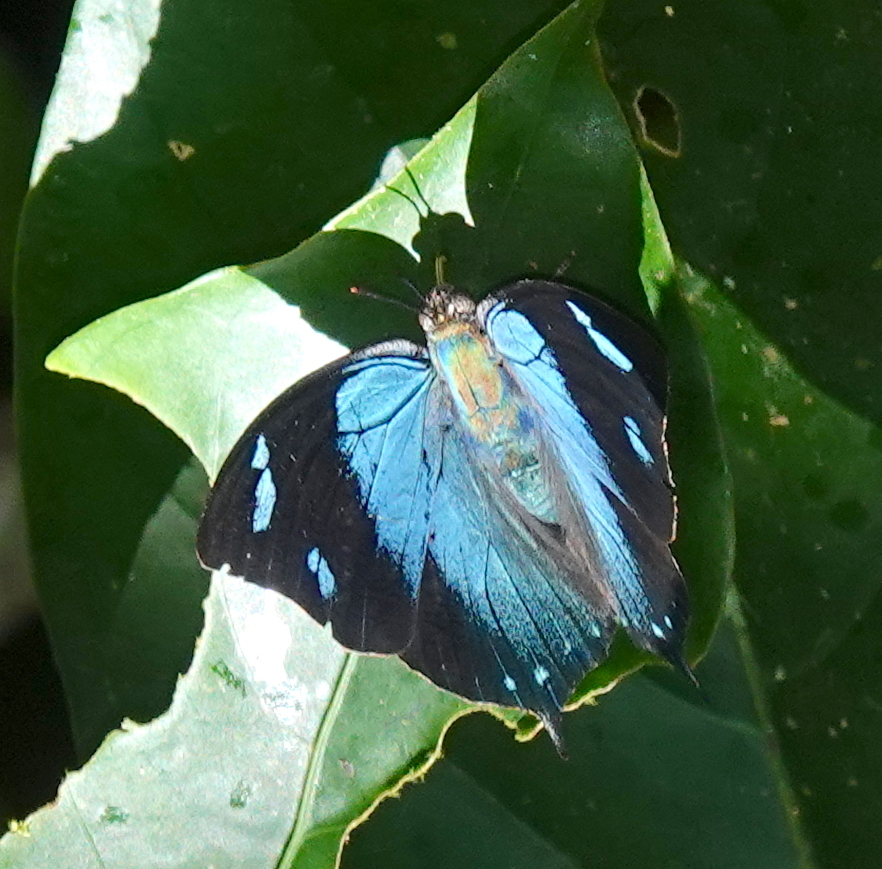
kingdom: Animalia
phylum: Arthropoda
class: Insecta
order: Lepidoptera
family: Nymphalidae
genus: Anaea
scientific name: Anaea glauce
